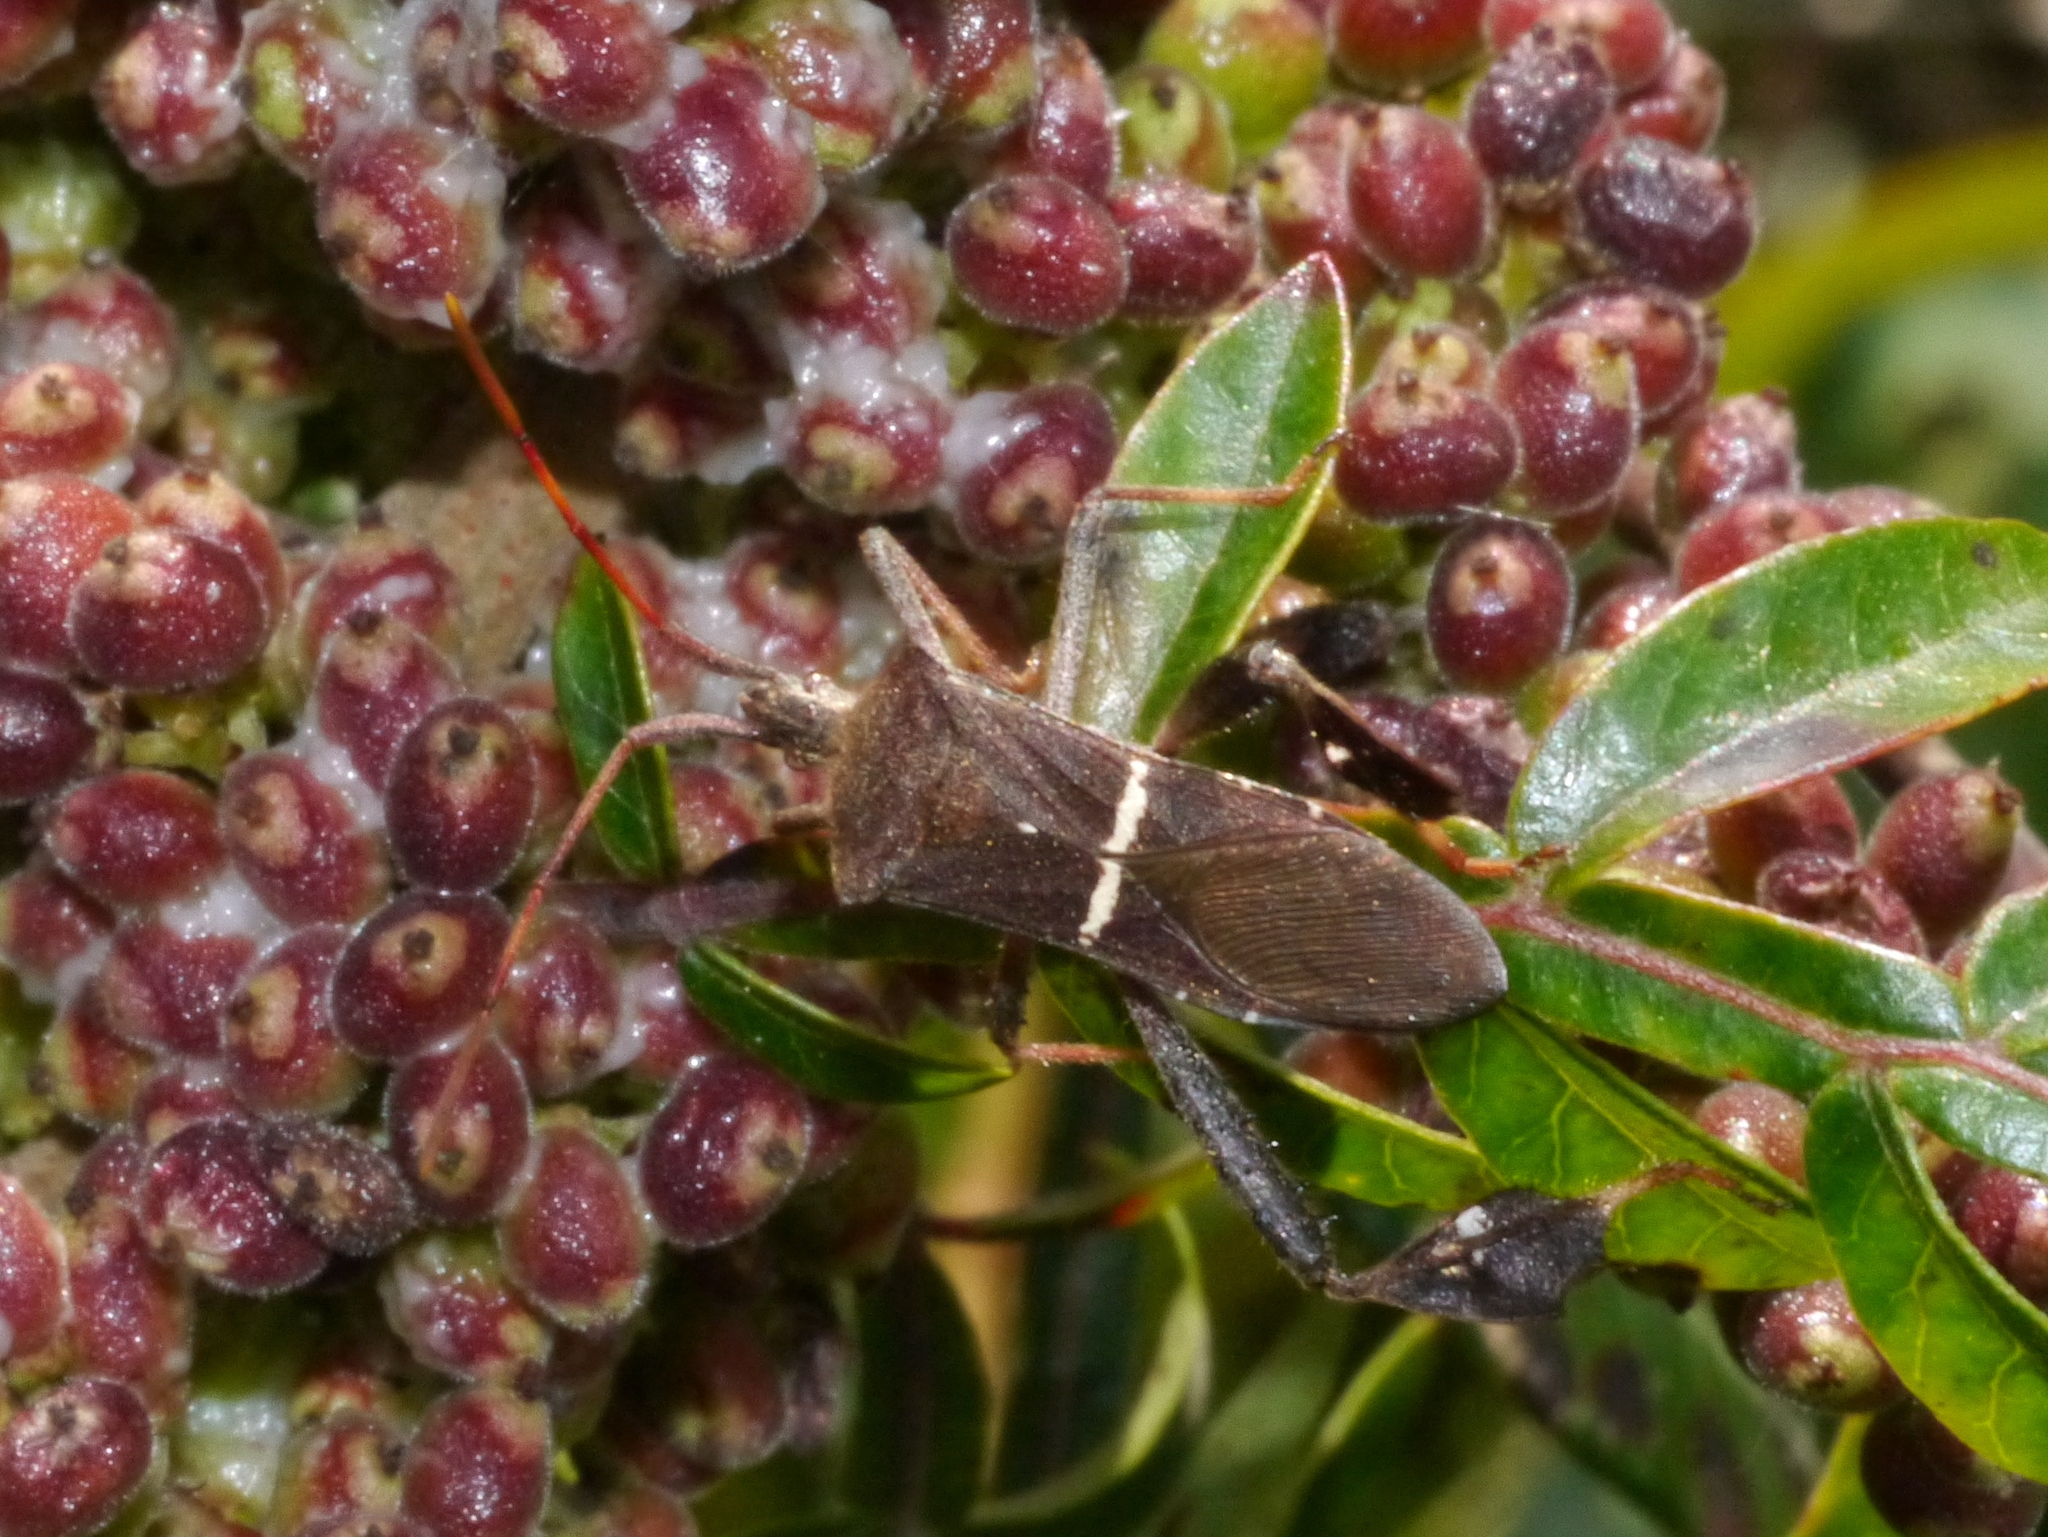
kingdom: Animalia
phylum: Arthropoda
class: Insecta
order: Hemiptera
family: Coreidae
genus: Leptoglossus
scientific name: Leptoglossus phyllopus
